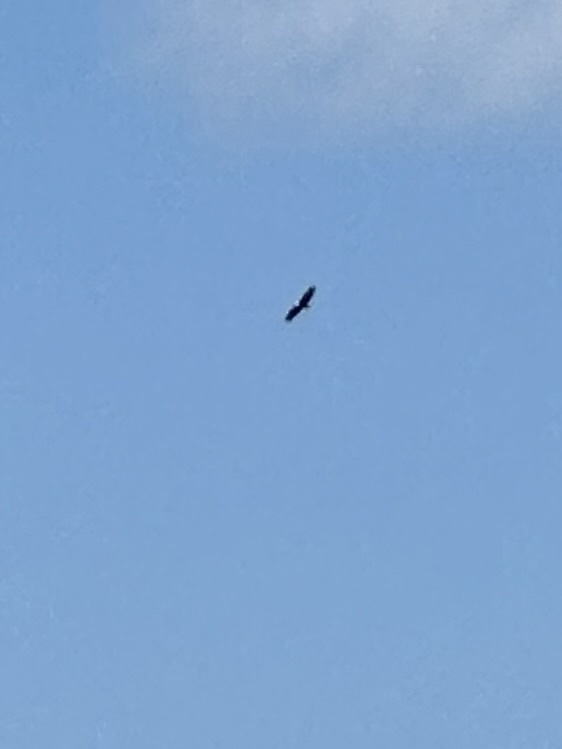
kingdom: Animalia
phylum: Chordata
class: Aves
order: Accipitriformes
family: Accipitridae
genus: Haliaeetus
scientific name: Haliaeetus leucocephalus
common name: Bald eagle
